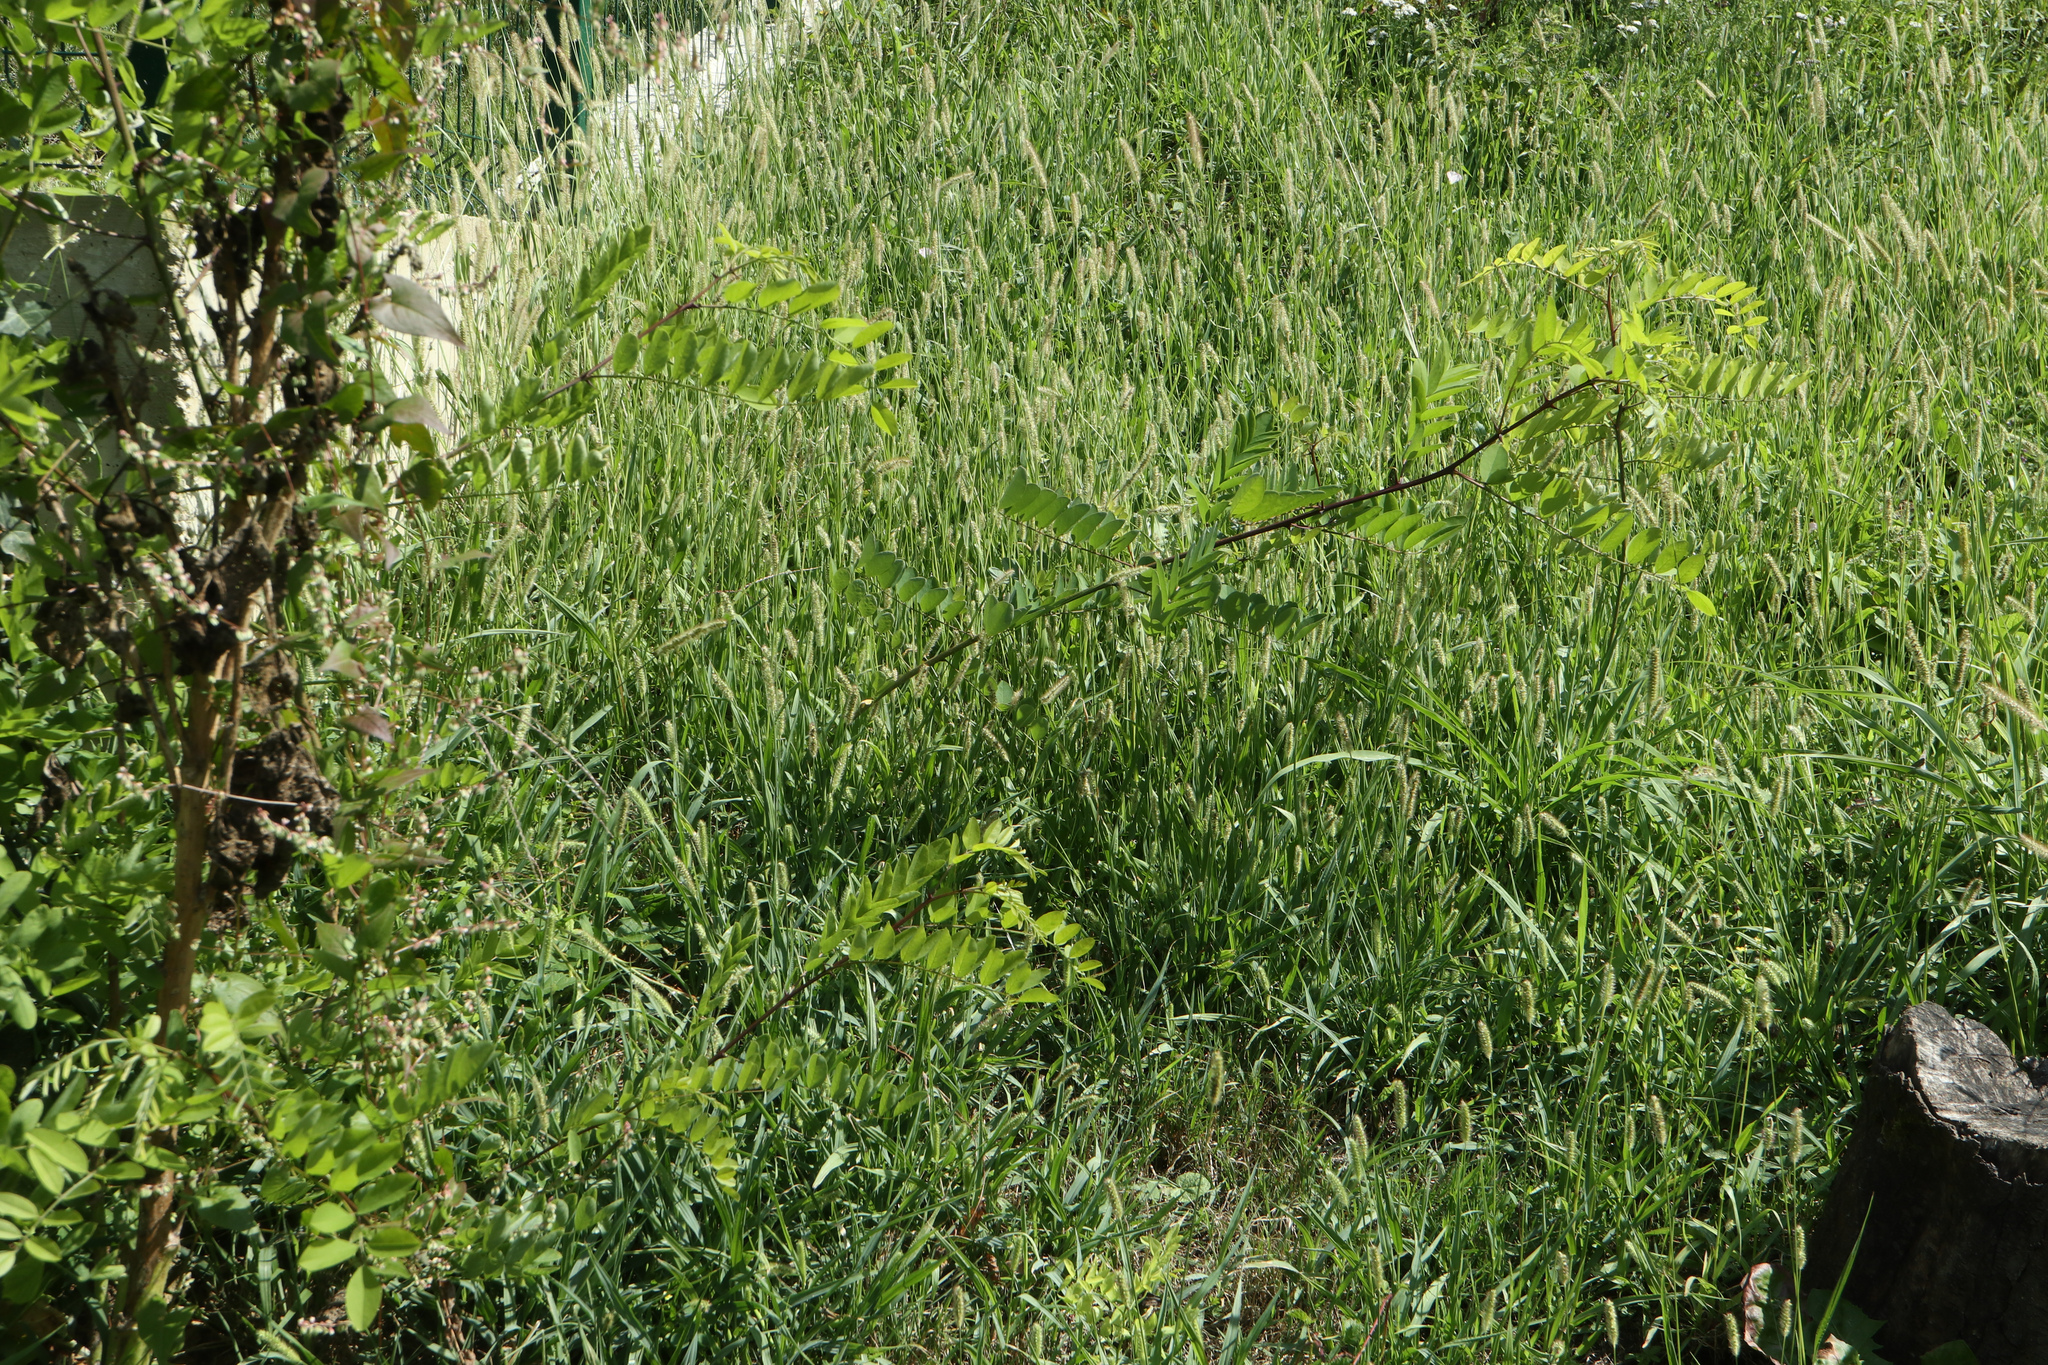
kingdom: Plantae
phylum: Tracheophyta
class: Magnoliopsida
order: Fabales
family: Fabaceae
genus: Robinia
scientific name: Robinia pseudoacacia
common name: Black locust
